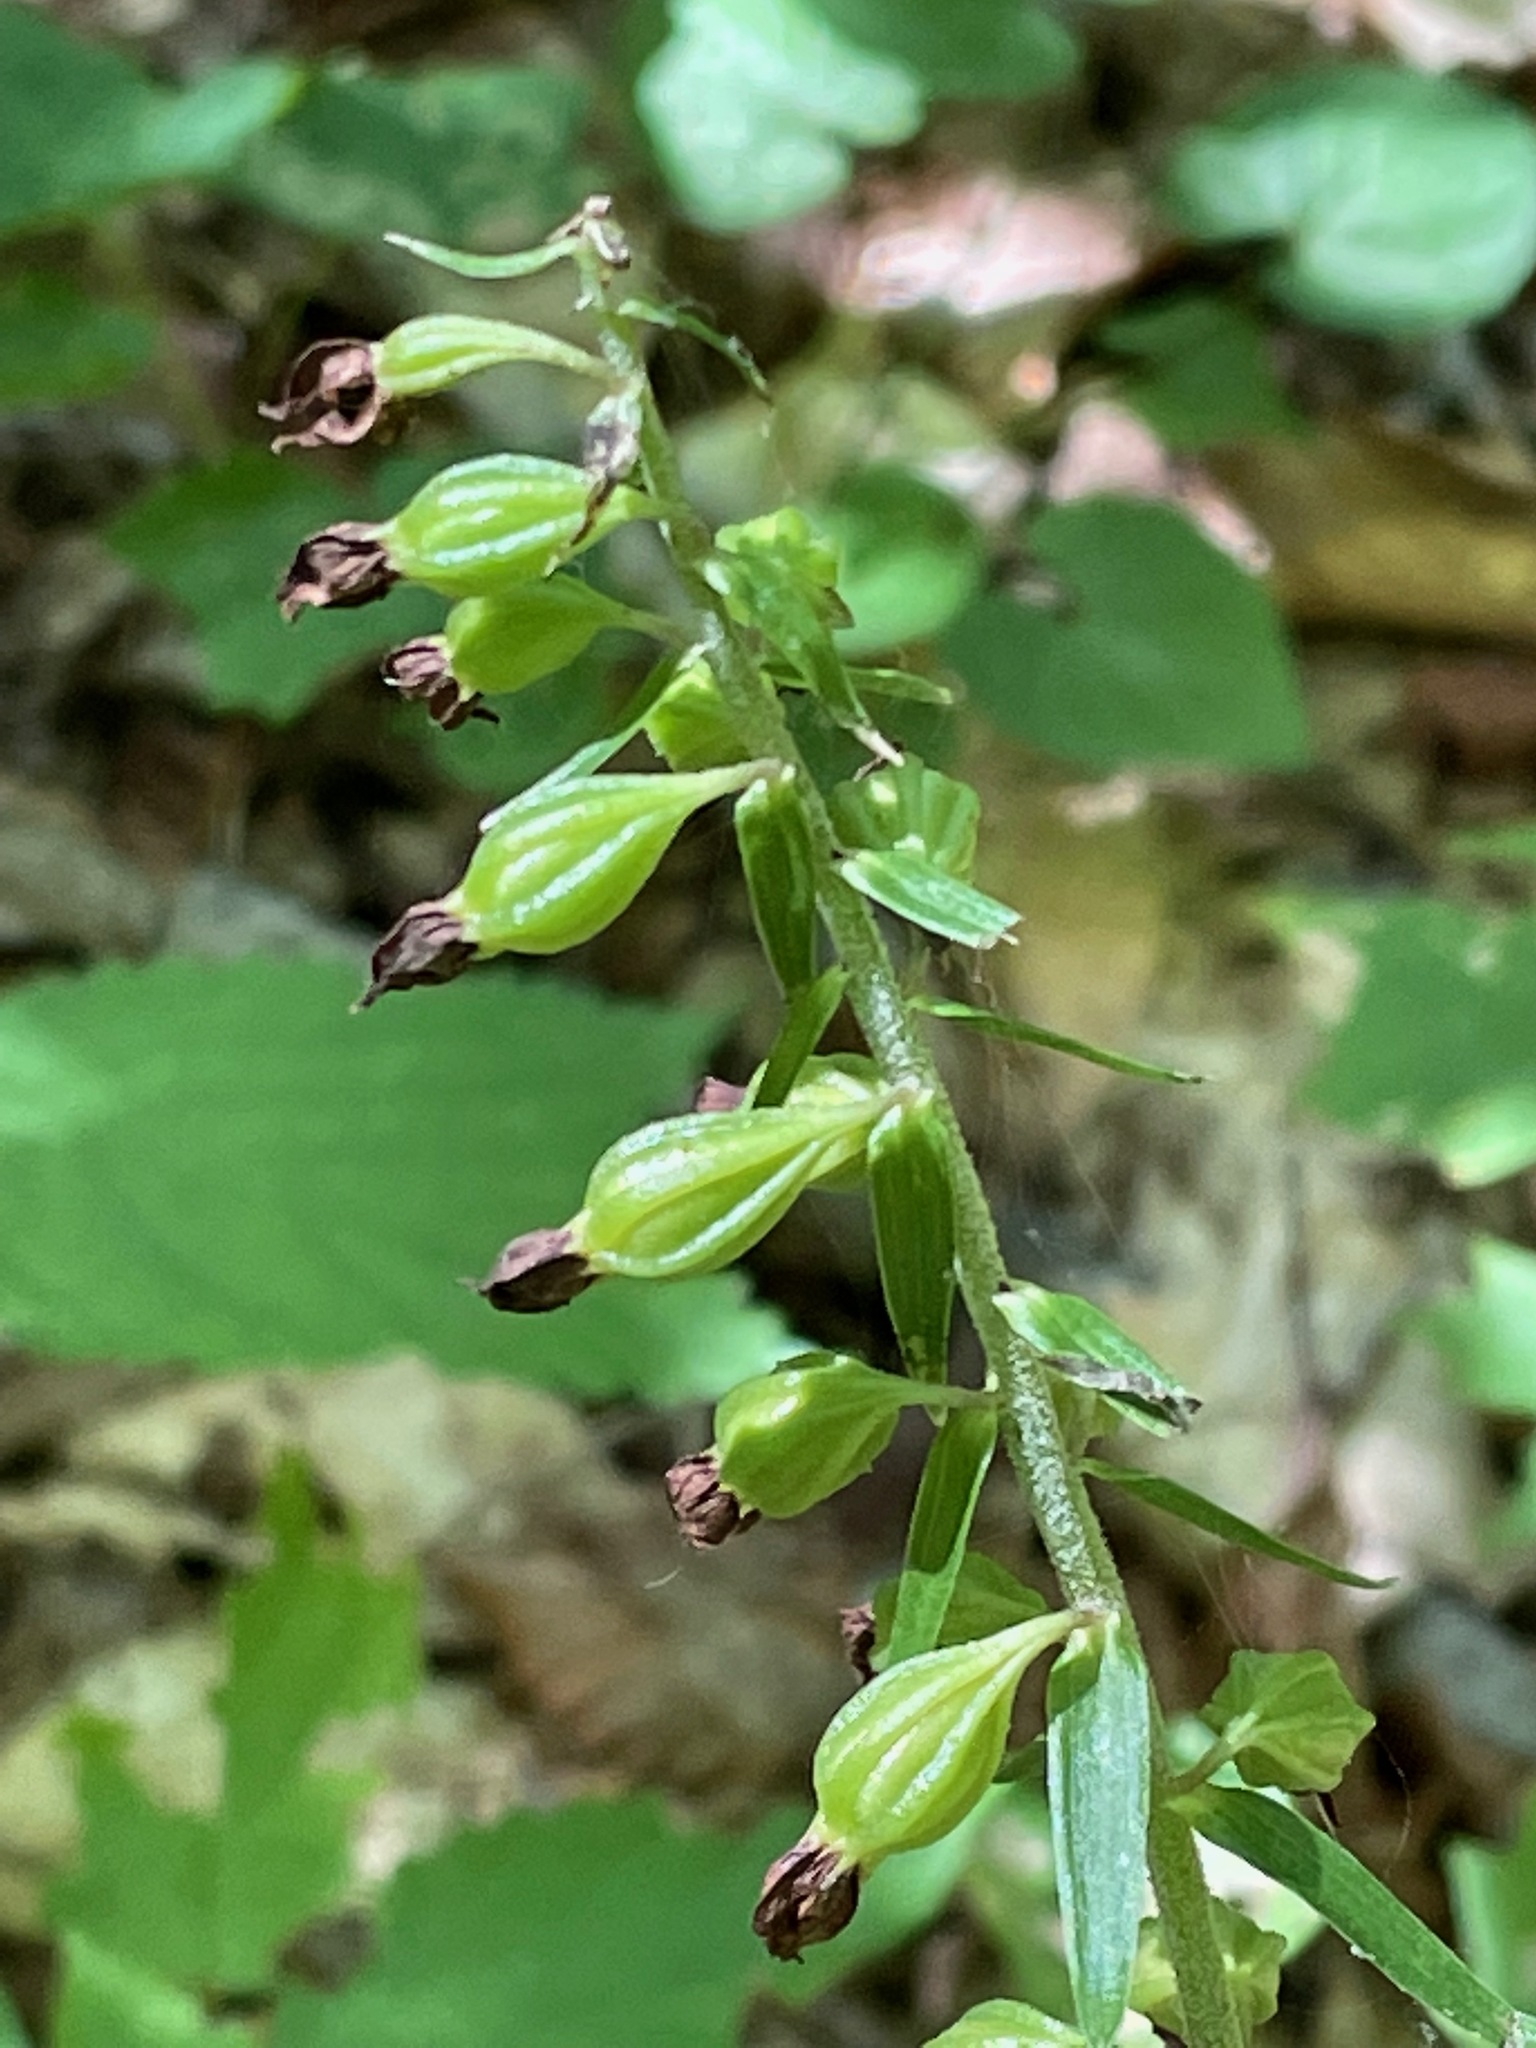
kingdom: Plantae
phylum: Tracheophyta
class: Liliopsida
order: Asparagales
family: Orchidaceae
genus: Epipactis
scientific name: Epipactis helleborine
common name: Broad-leaved helleborine
